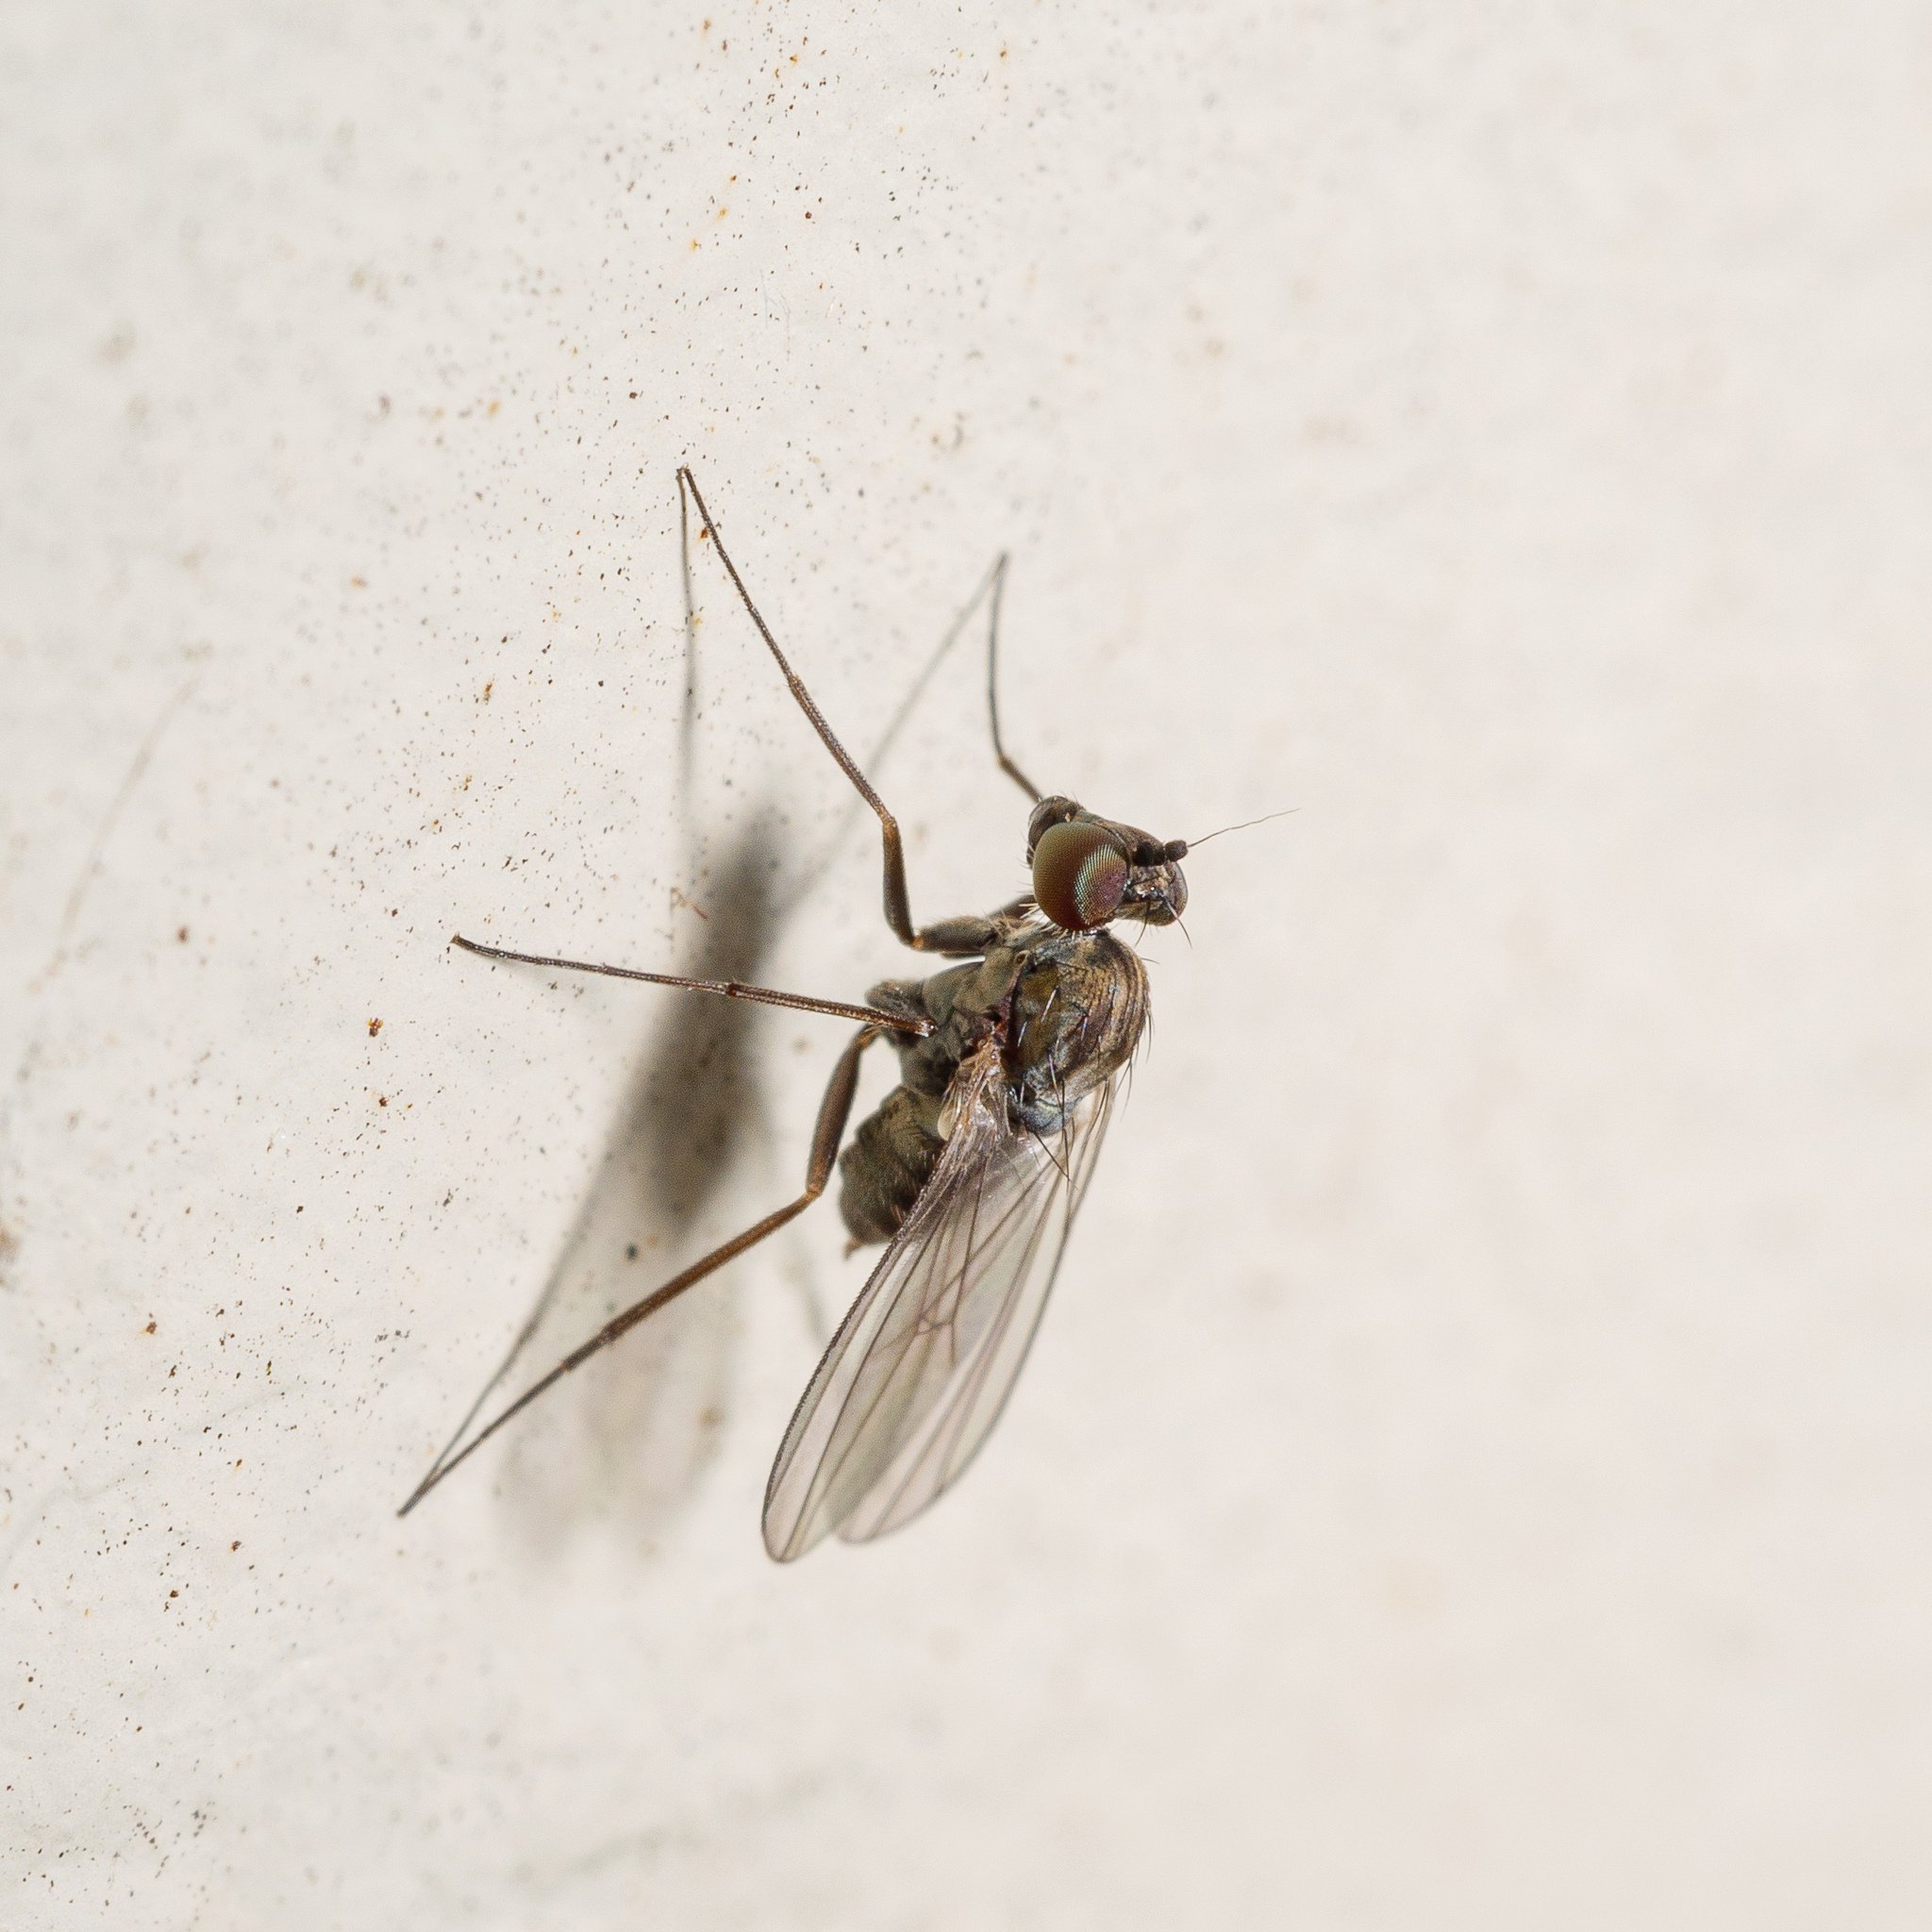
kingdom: Animalia
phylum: Arthropoda
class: Insecta
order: Diptera
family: Dolichopodidae
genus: Medetera
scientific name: Medetera grisescens
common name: Fly
